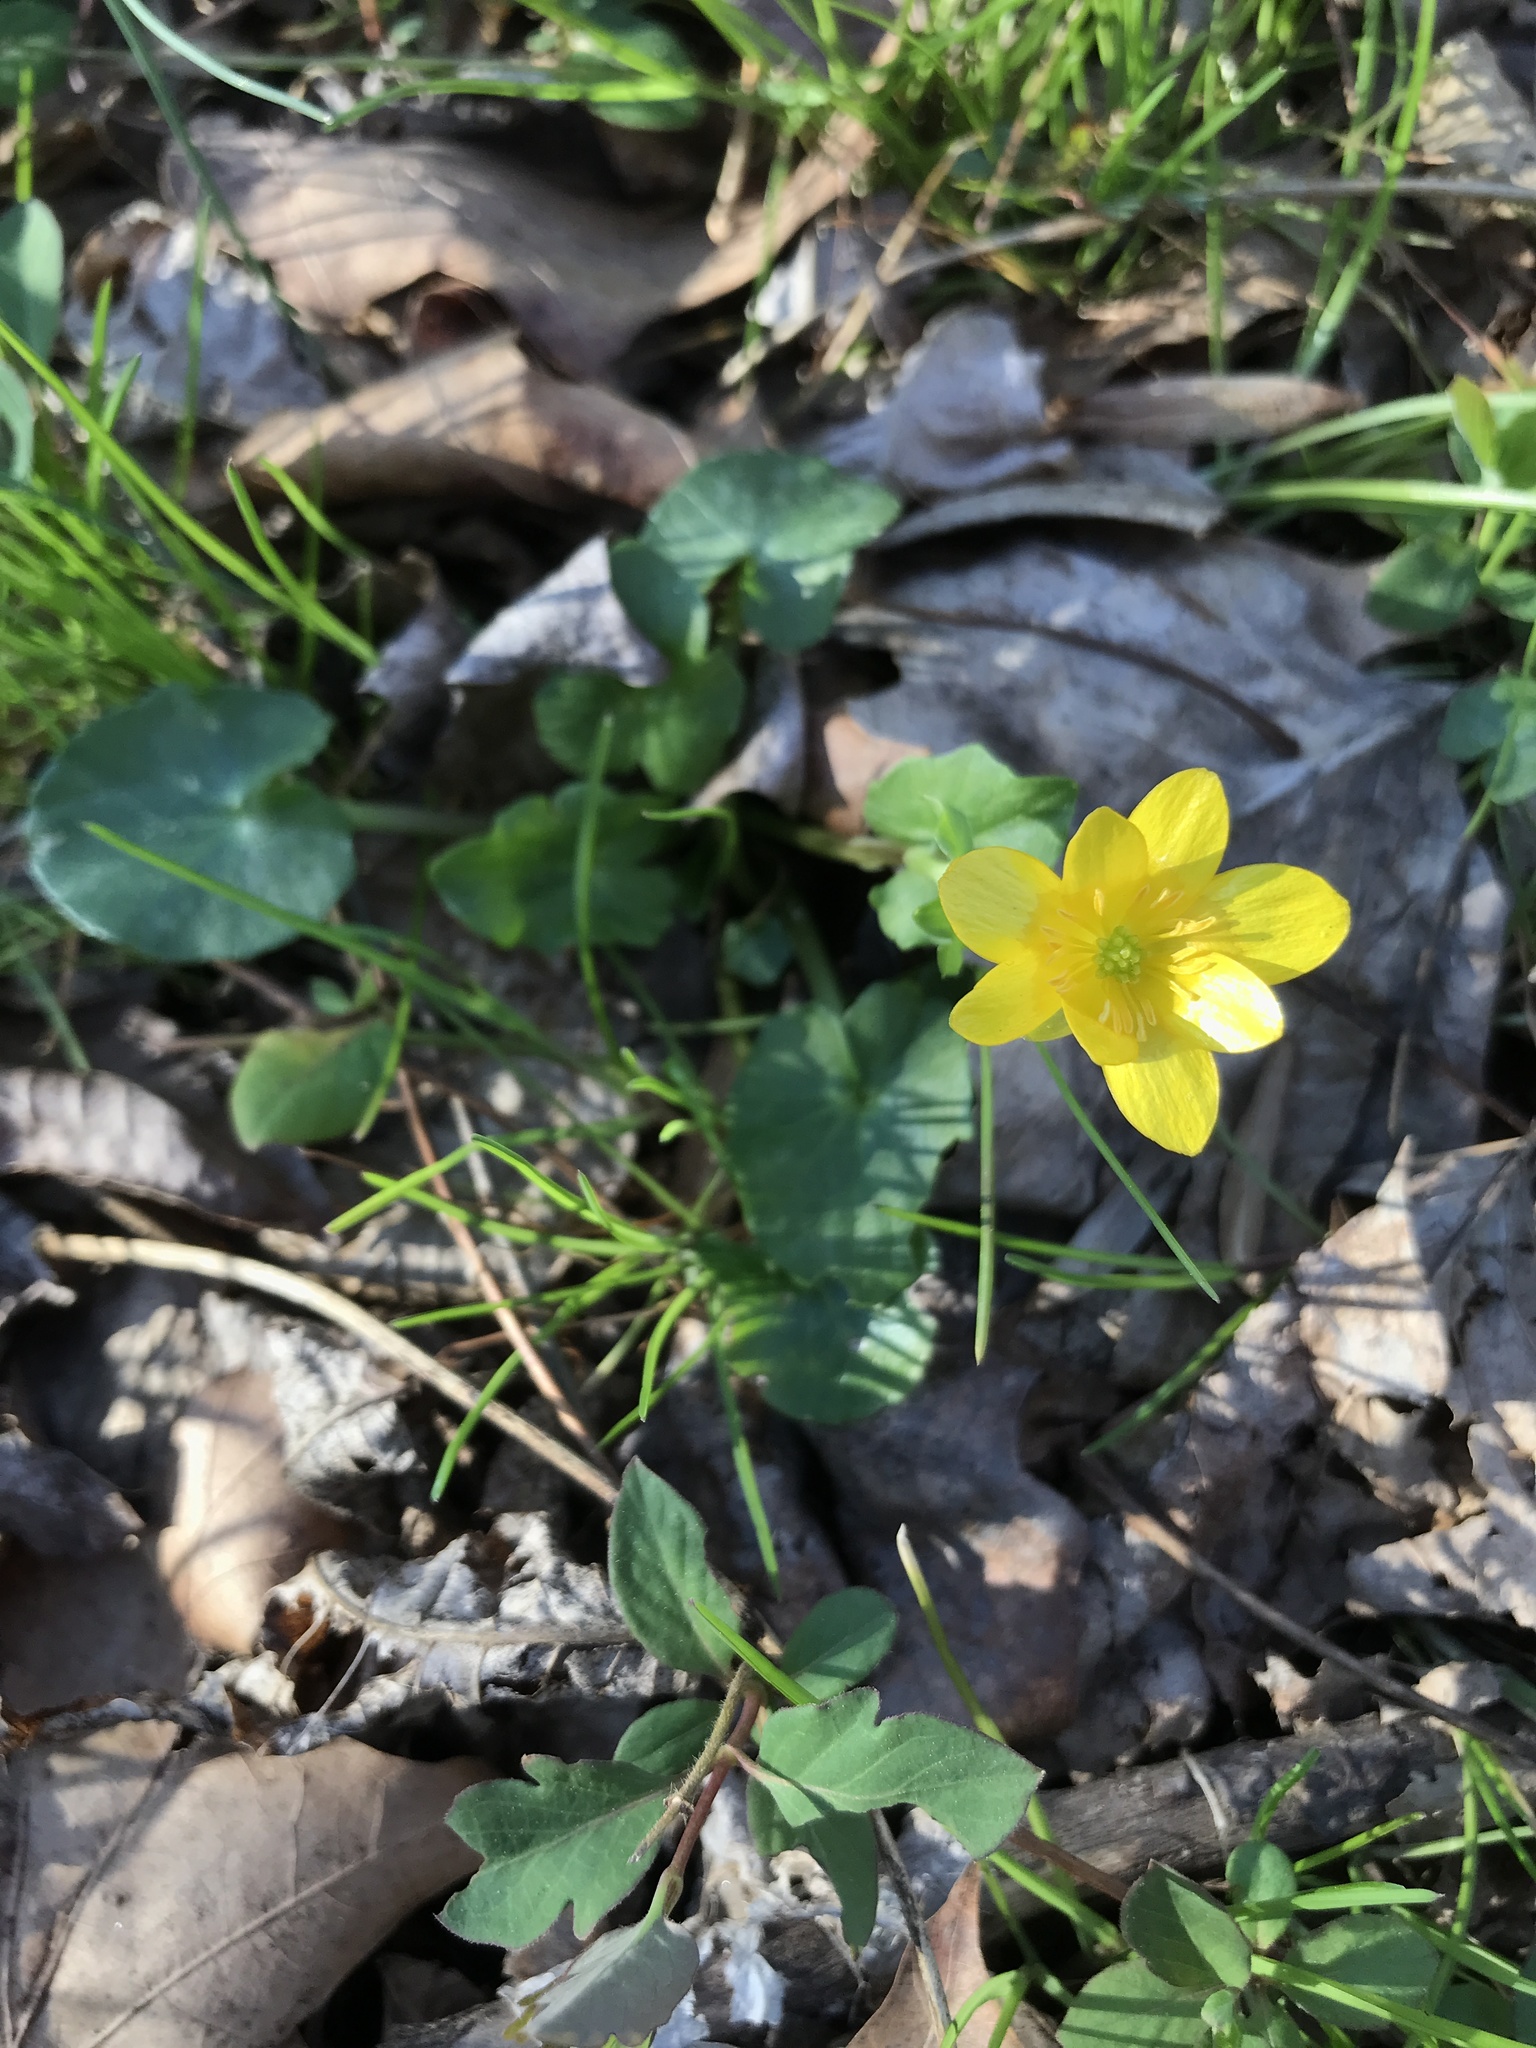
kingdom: Plantae
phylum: Tracheophyta
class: Magnoliopsida
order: Ranunculales
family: Ranunculaceae
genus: Ficaria
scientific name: Ficaria verna
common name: Lesser celandine
